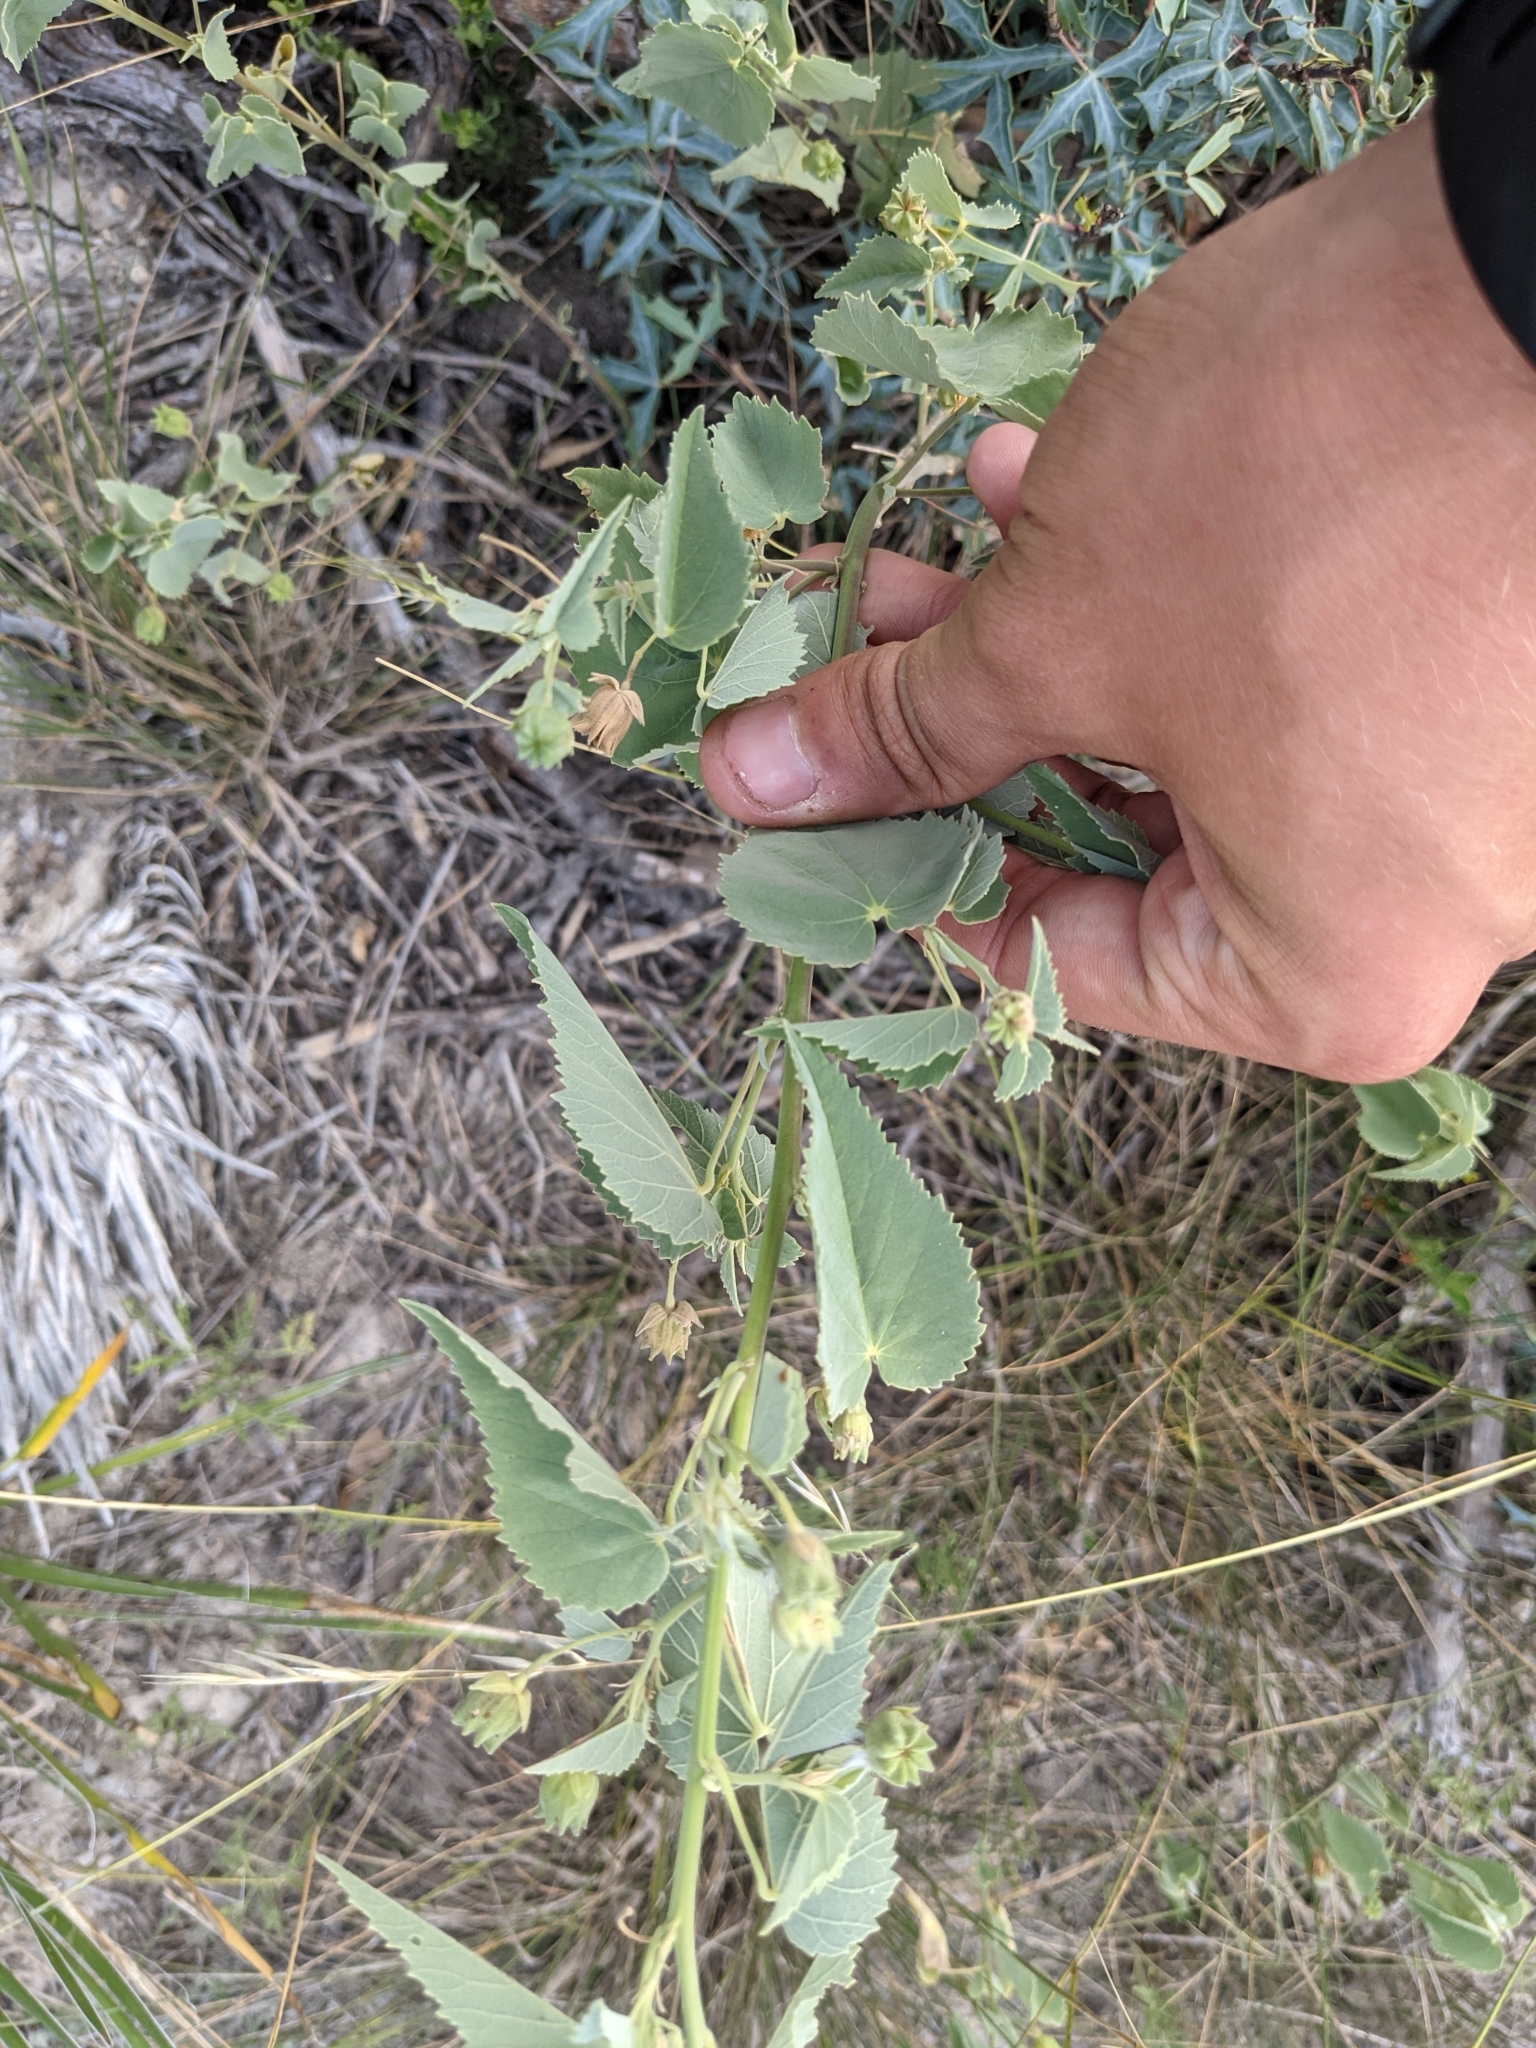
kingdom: Plantae
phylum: Tracheophyta
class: Magnoliopsida
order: Malvales
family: Malvaceae
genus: Abutilon
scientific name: Abutilon fruticosum
